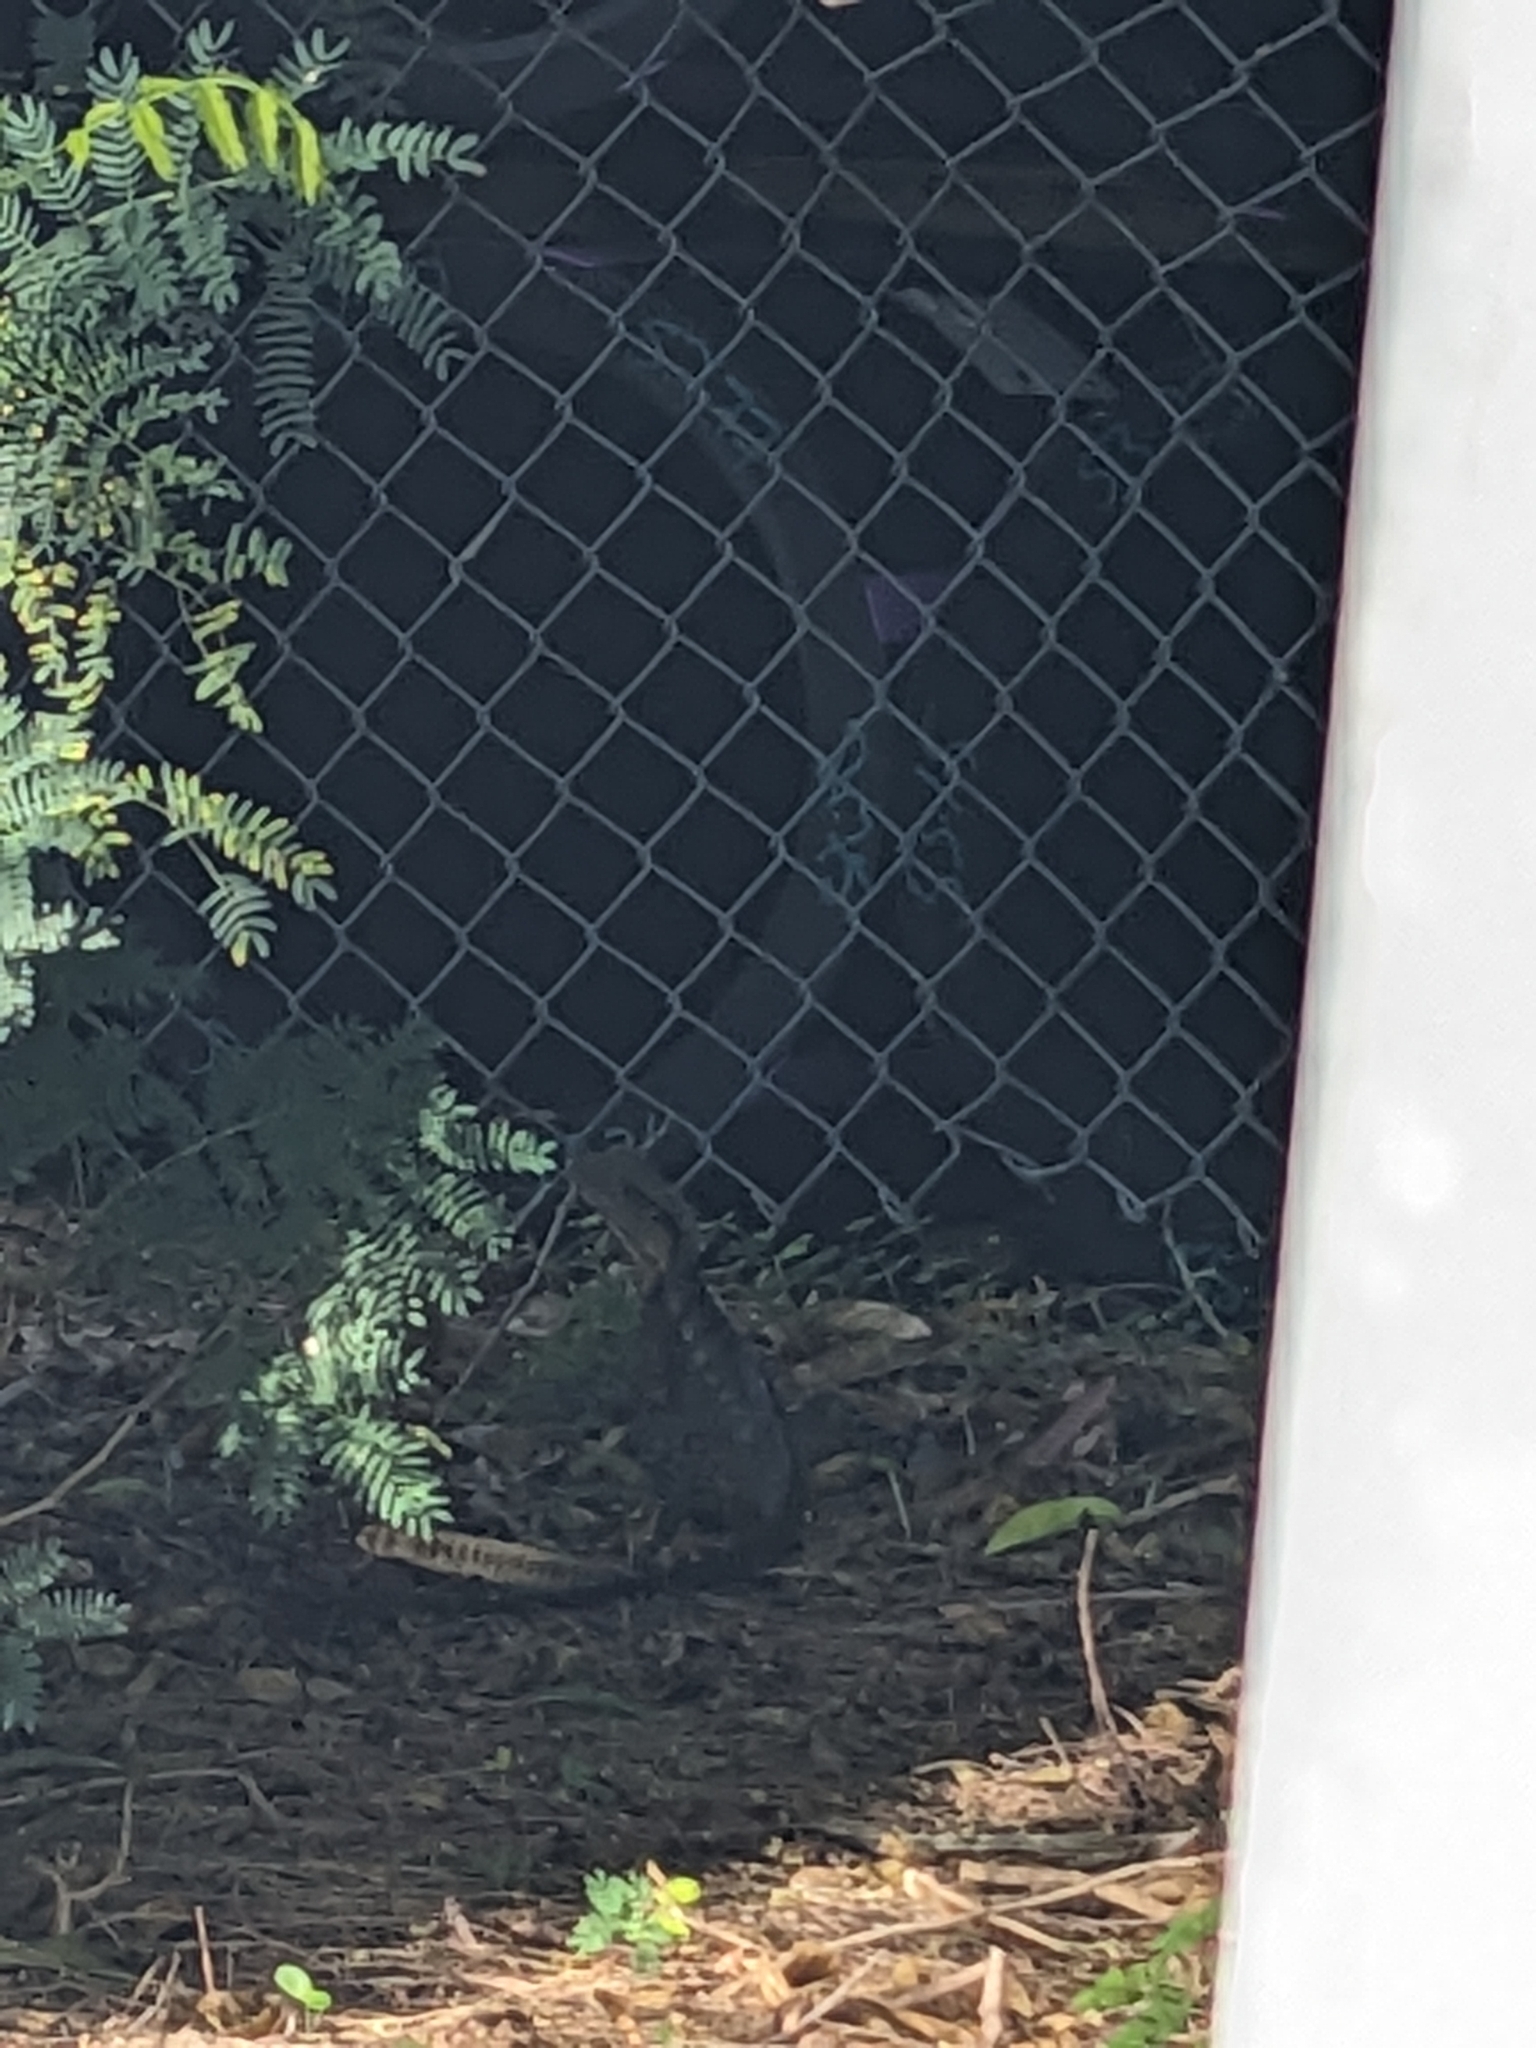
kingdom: Animalia
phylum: Chordata
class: Squamata
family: Agamidae
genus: Intellagama
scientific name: Intellagama lesueurii
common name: Eastern water dragon
